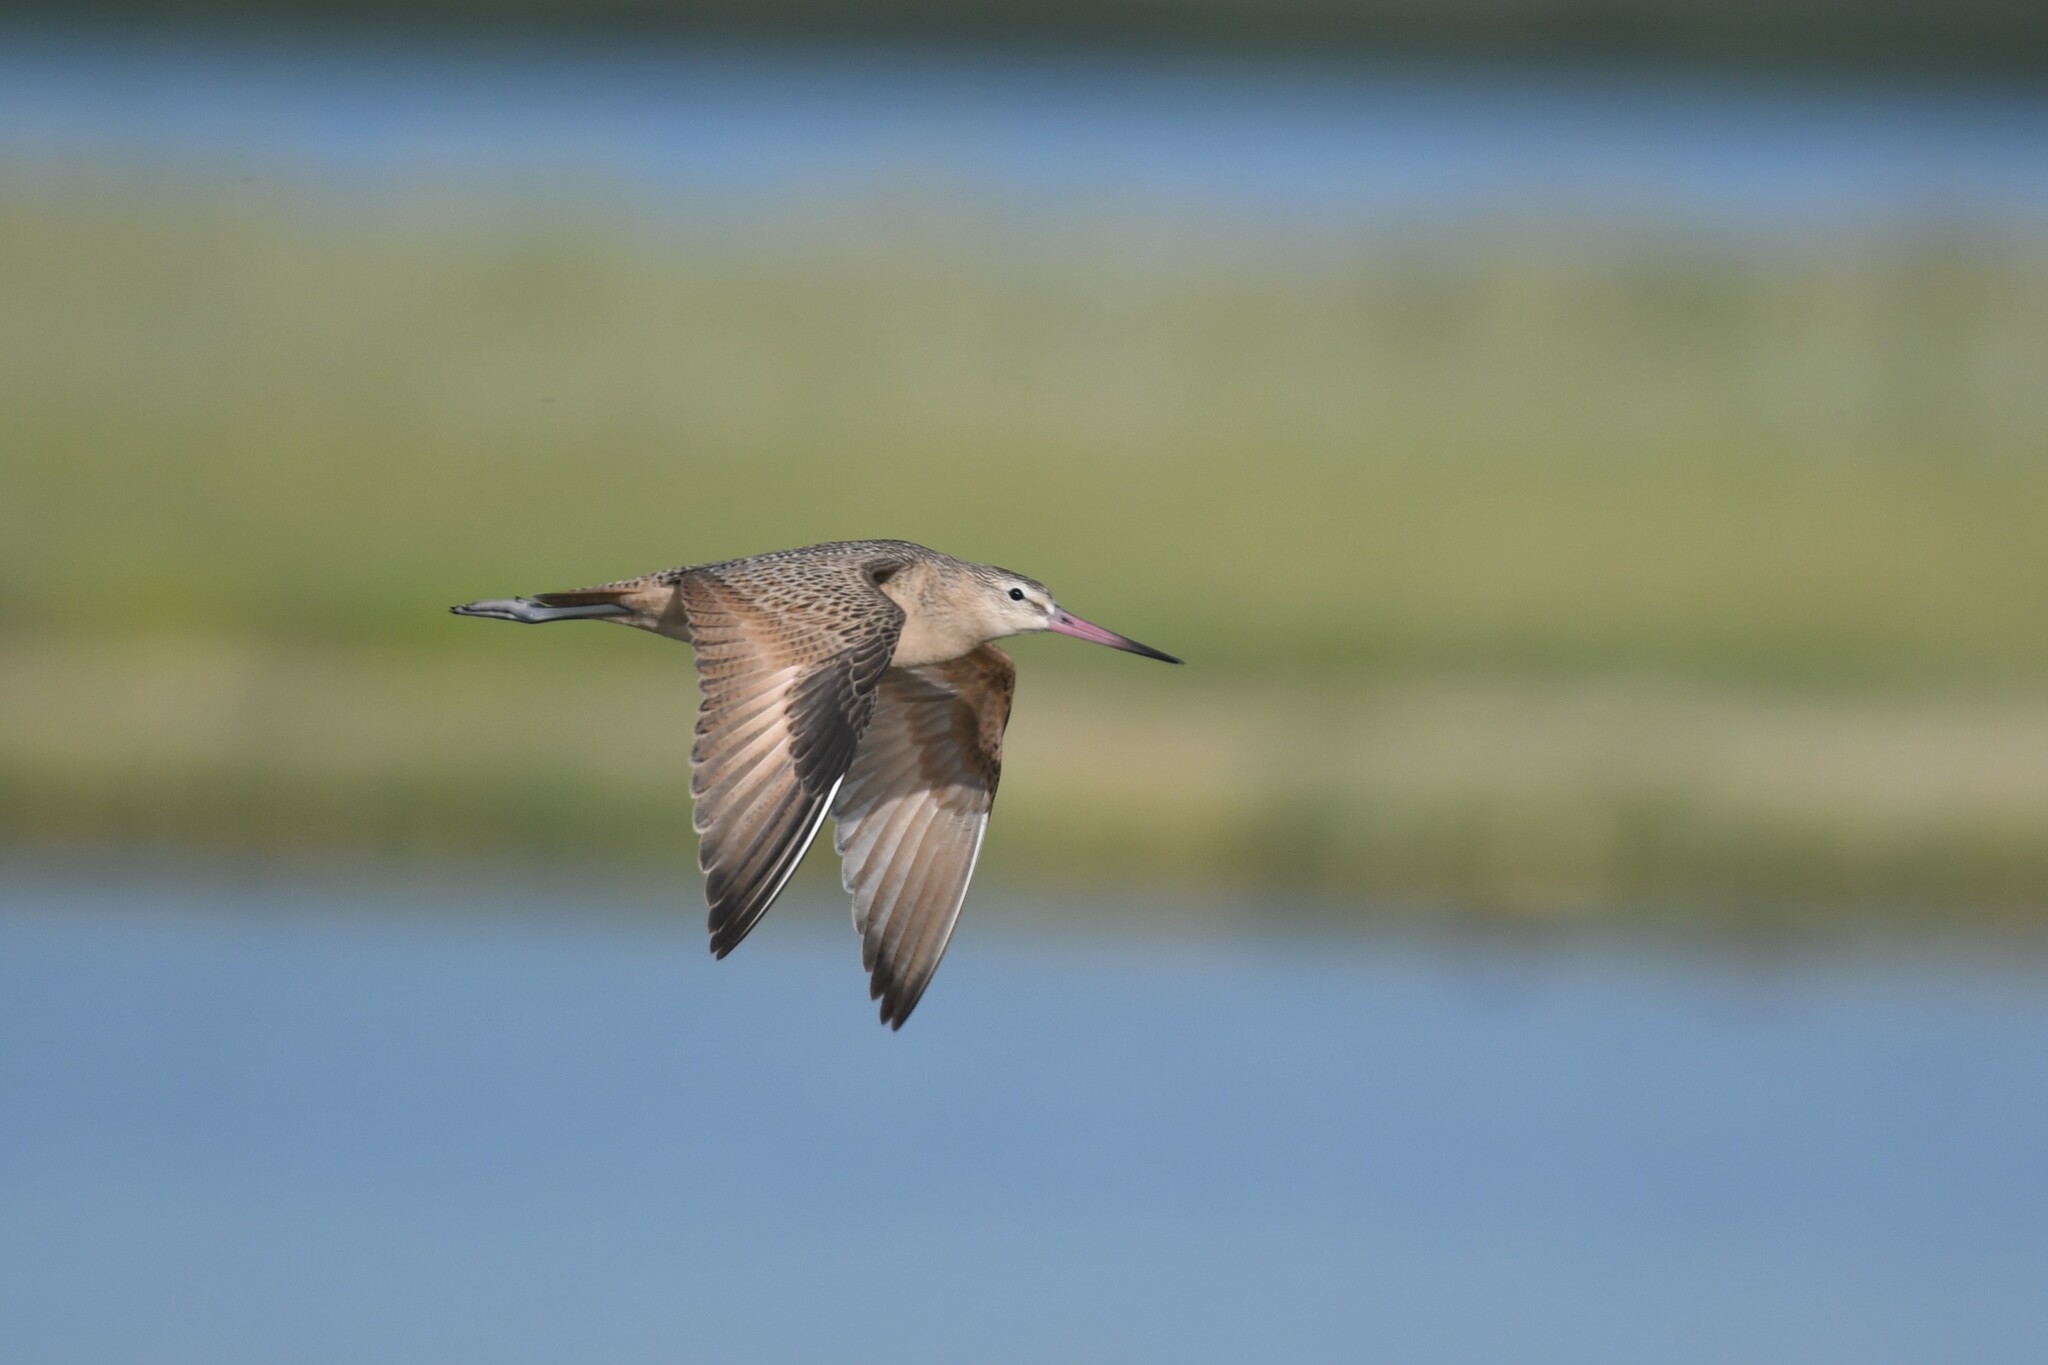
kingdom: Animalia
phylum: Chordata
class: Aves
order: Charadriiformes
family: Scolopacidae
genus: Limosa
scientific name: Limosa fedoa
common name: Marbled godwit
